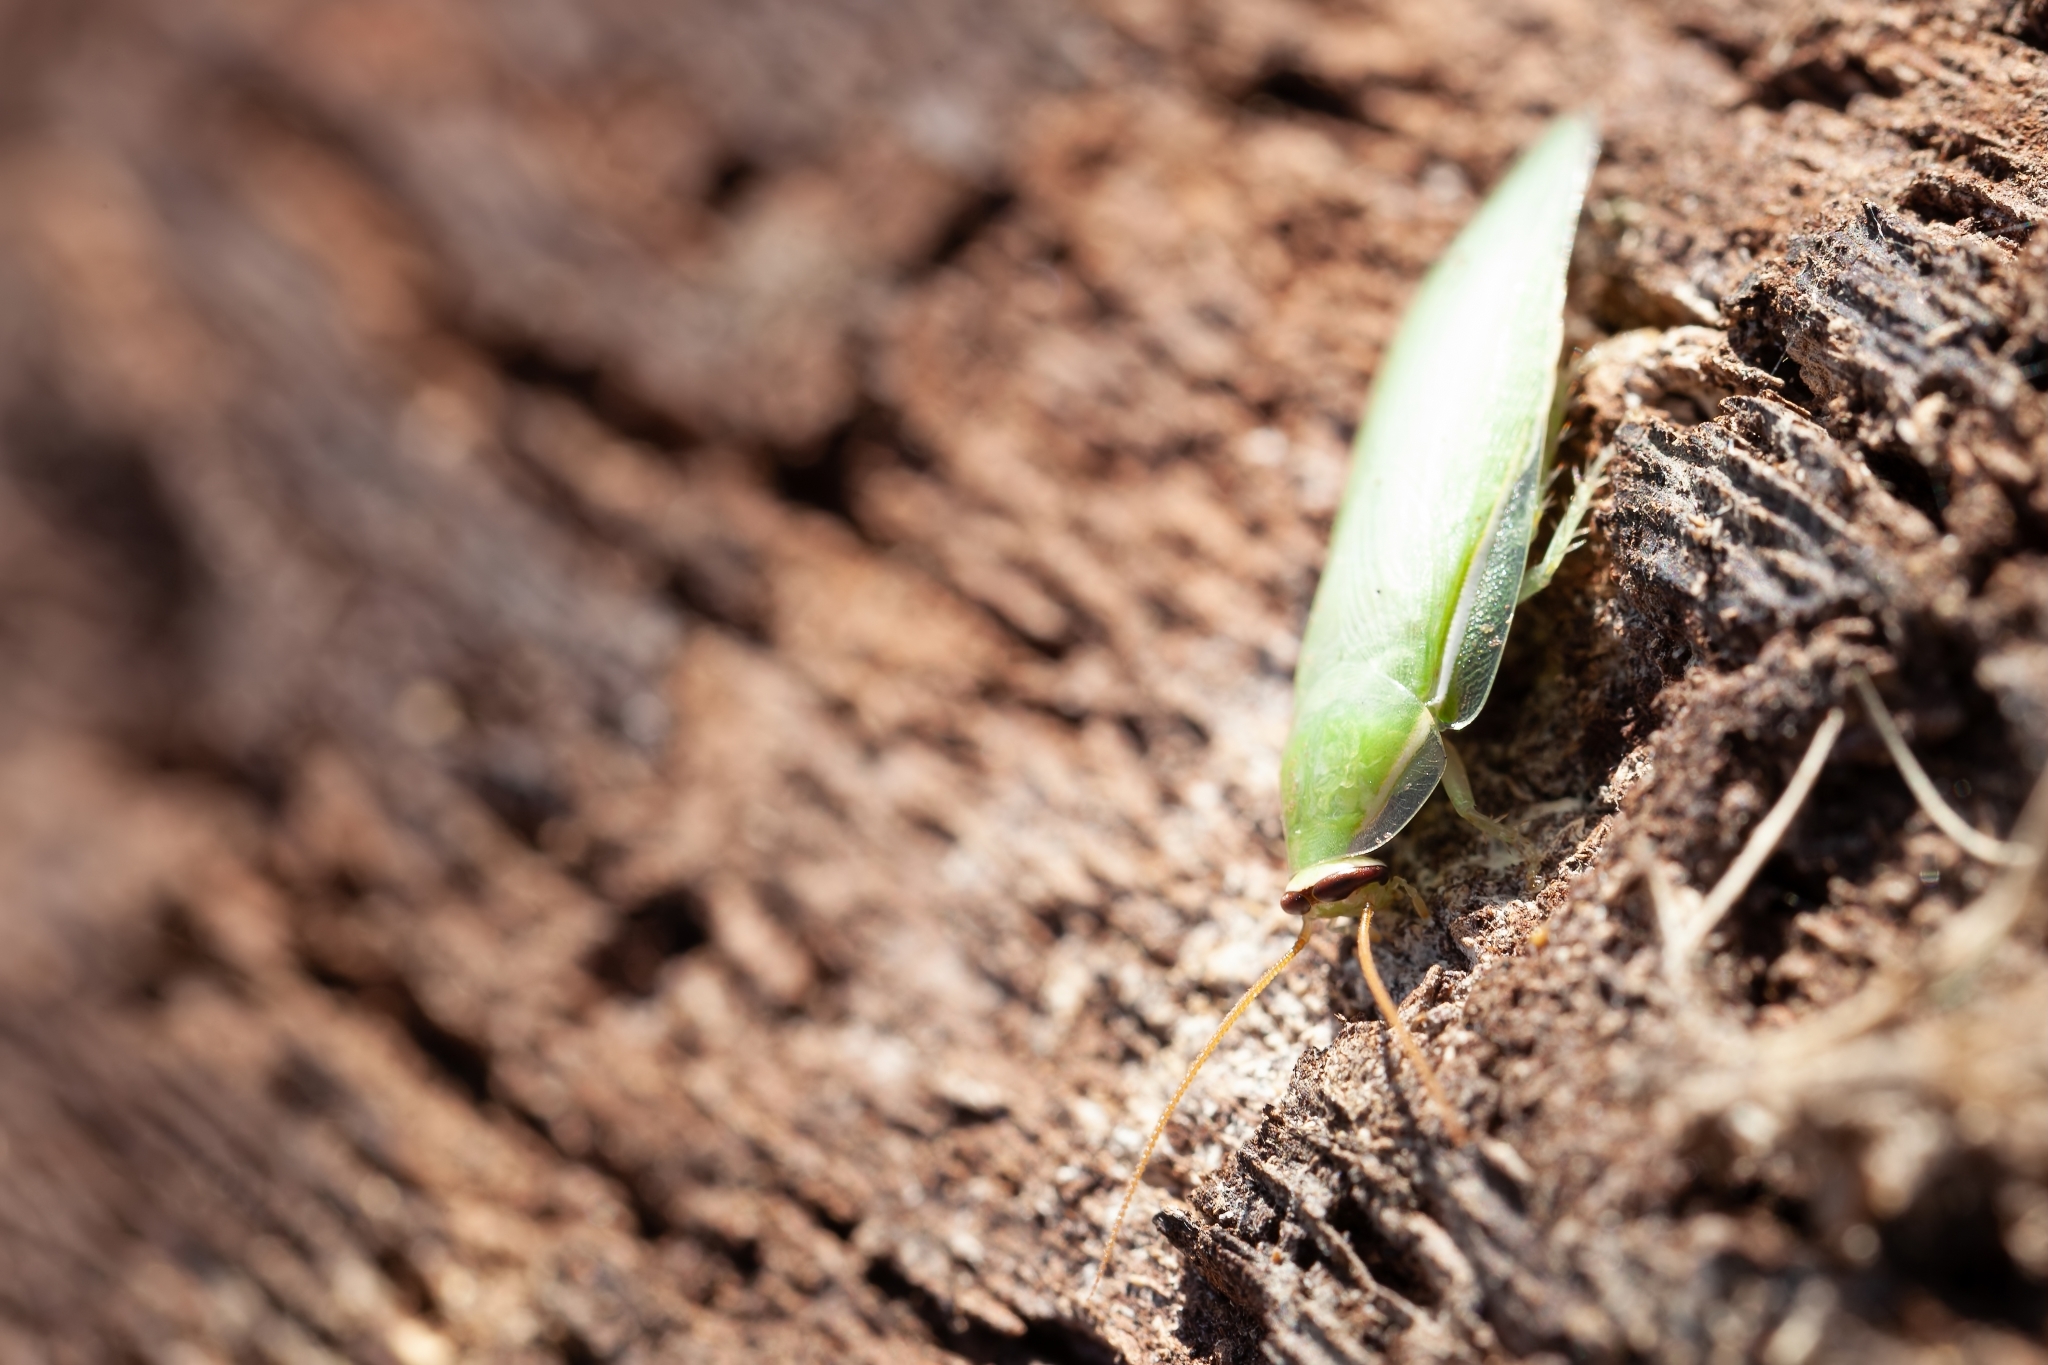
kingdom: Animalia
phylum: Arthropoda
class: Insecta
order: Blattodea
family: Blaberidae
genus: Panchlora
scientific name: Panchlora nivea
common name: Cuban cockroach
